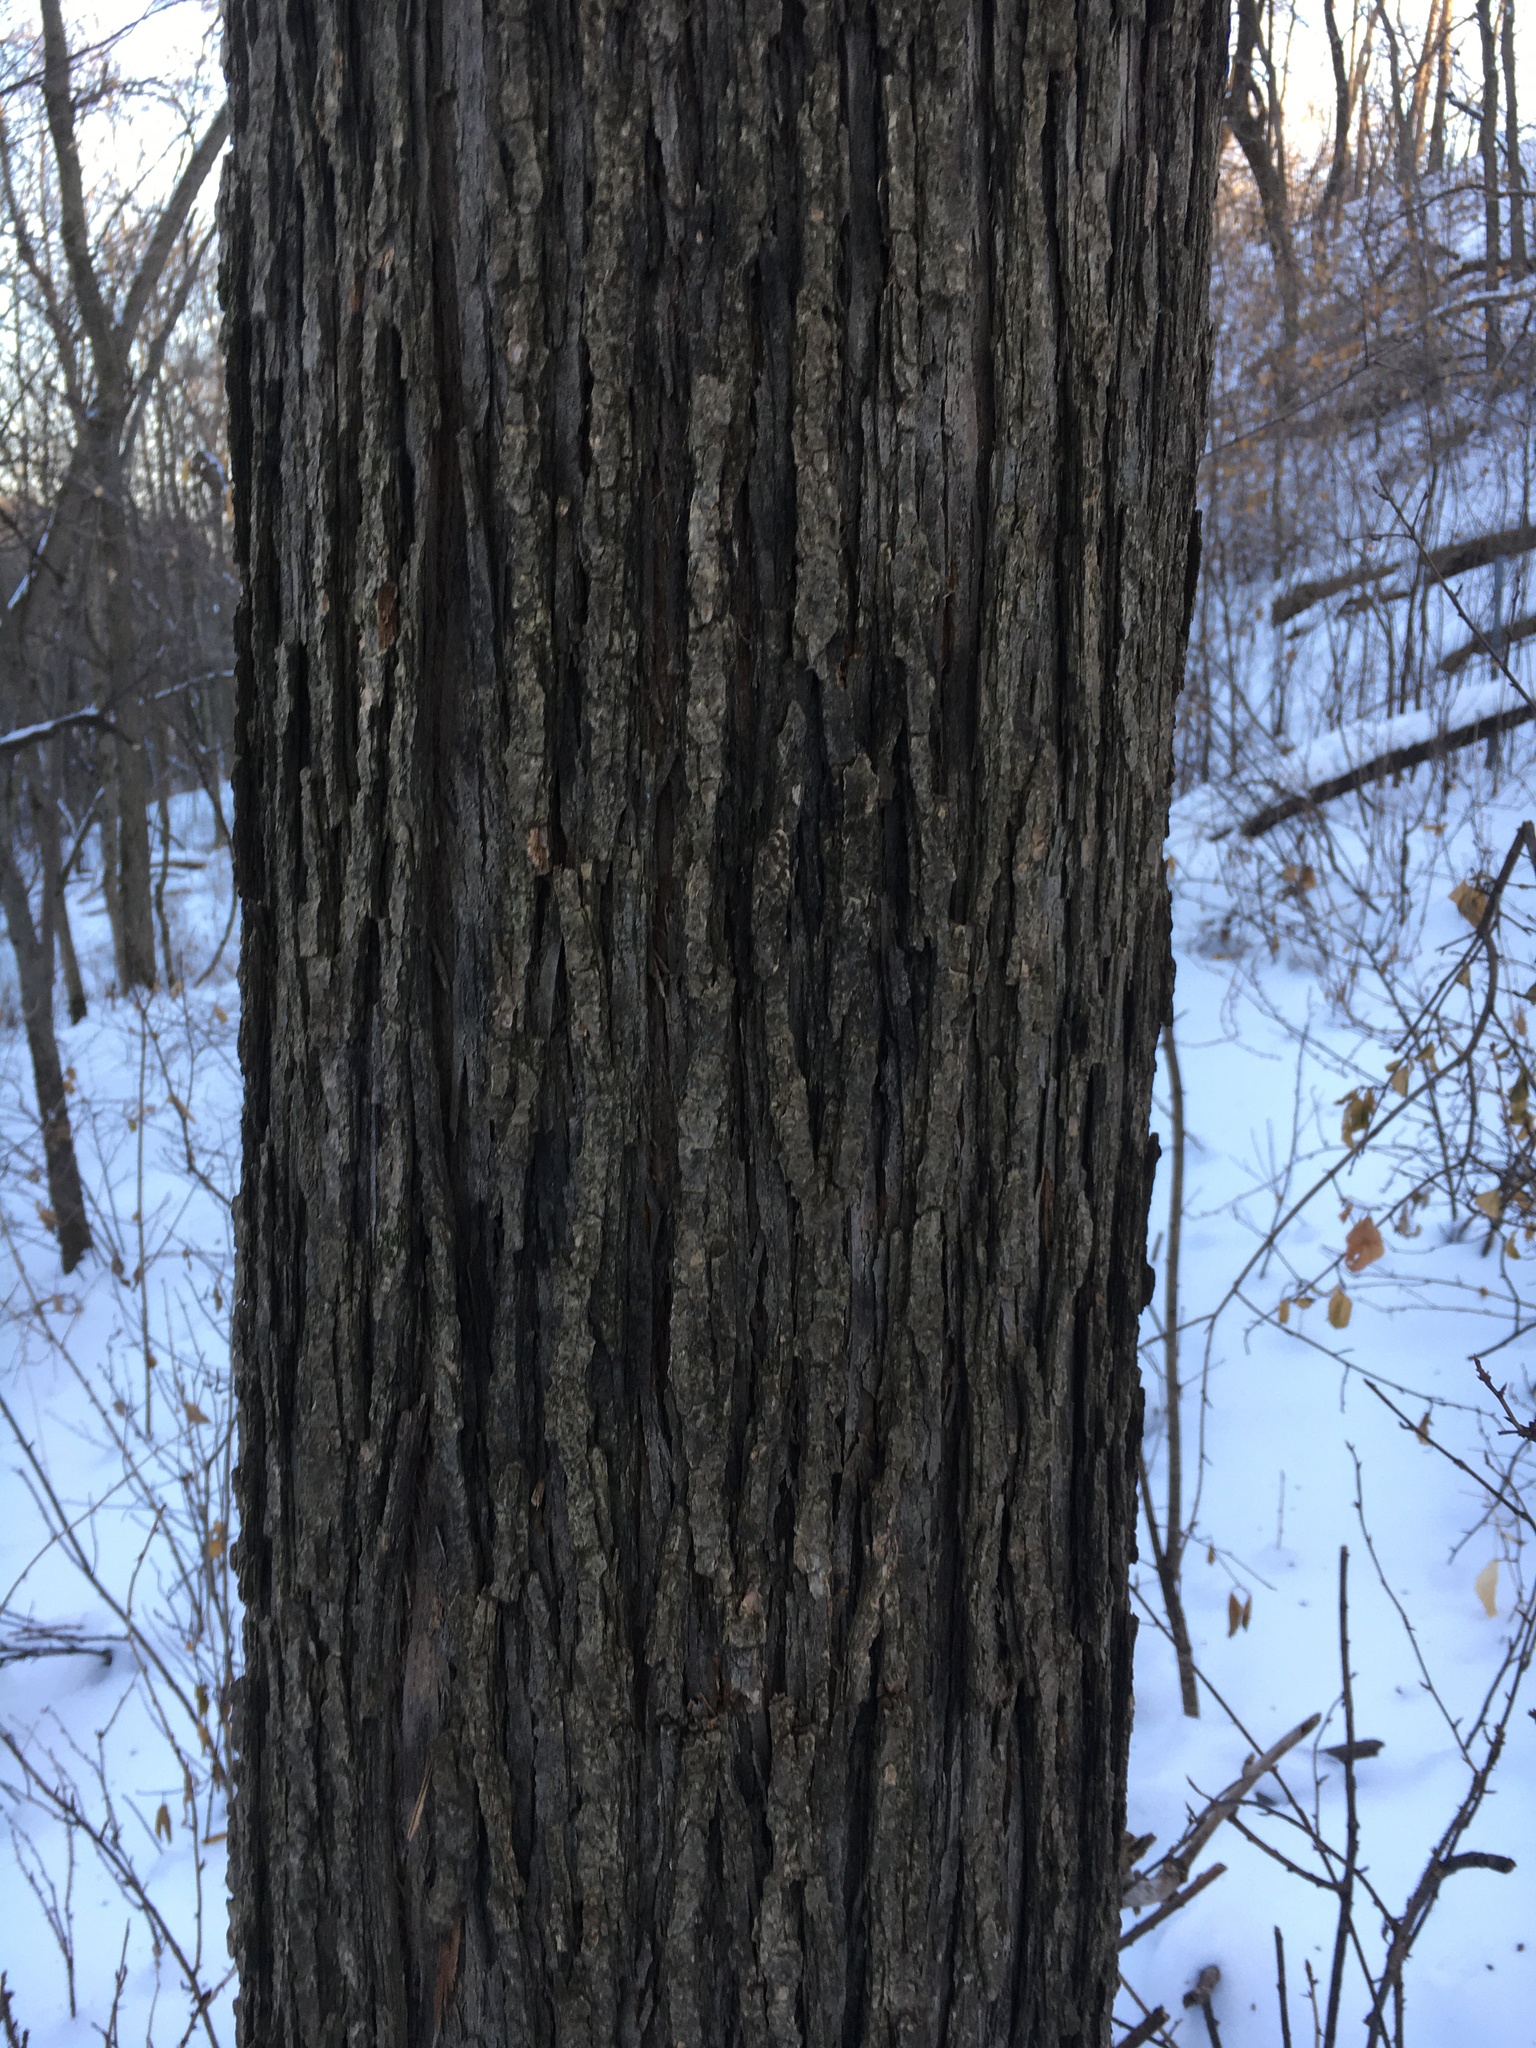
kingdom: Plantae
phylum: Tracheophyta
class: Magnoliopsida
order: Rosales
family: Ulmaceae
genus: Ulmus
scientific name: Ulmus rubra
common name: Slippery elm
